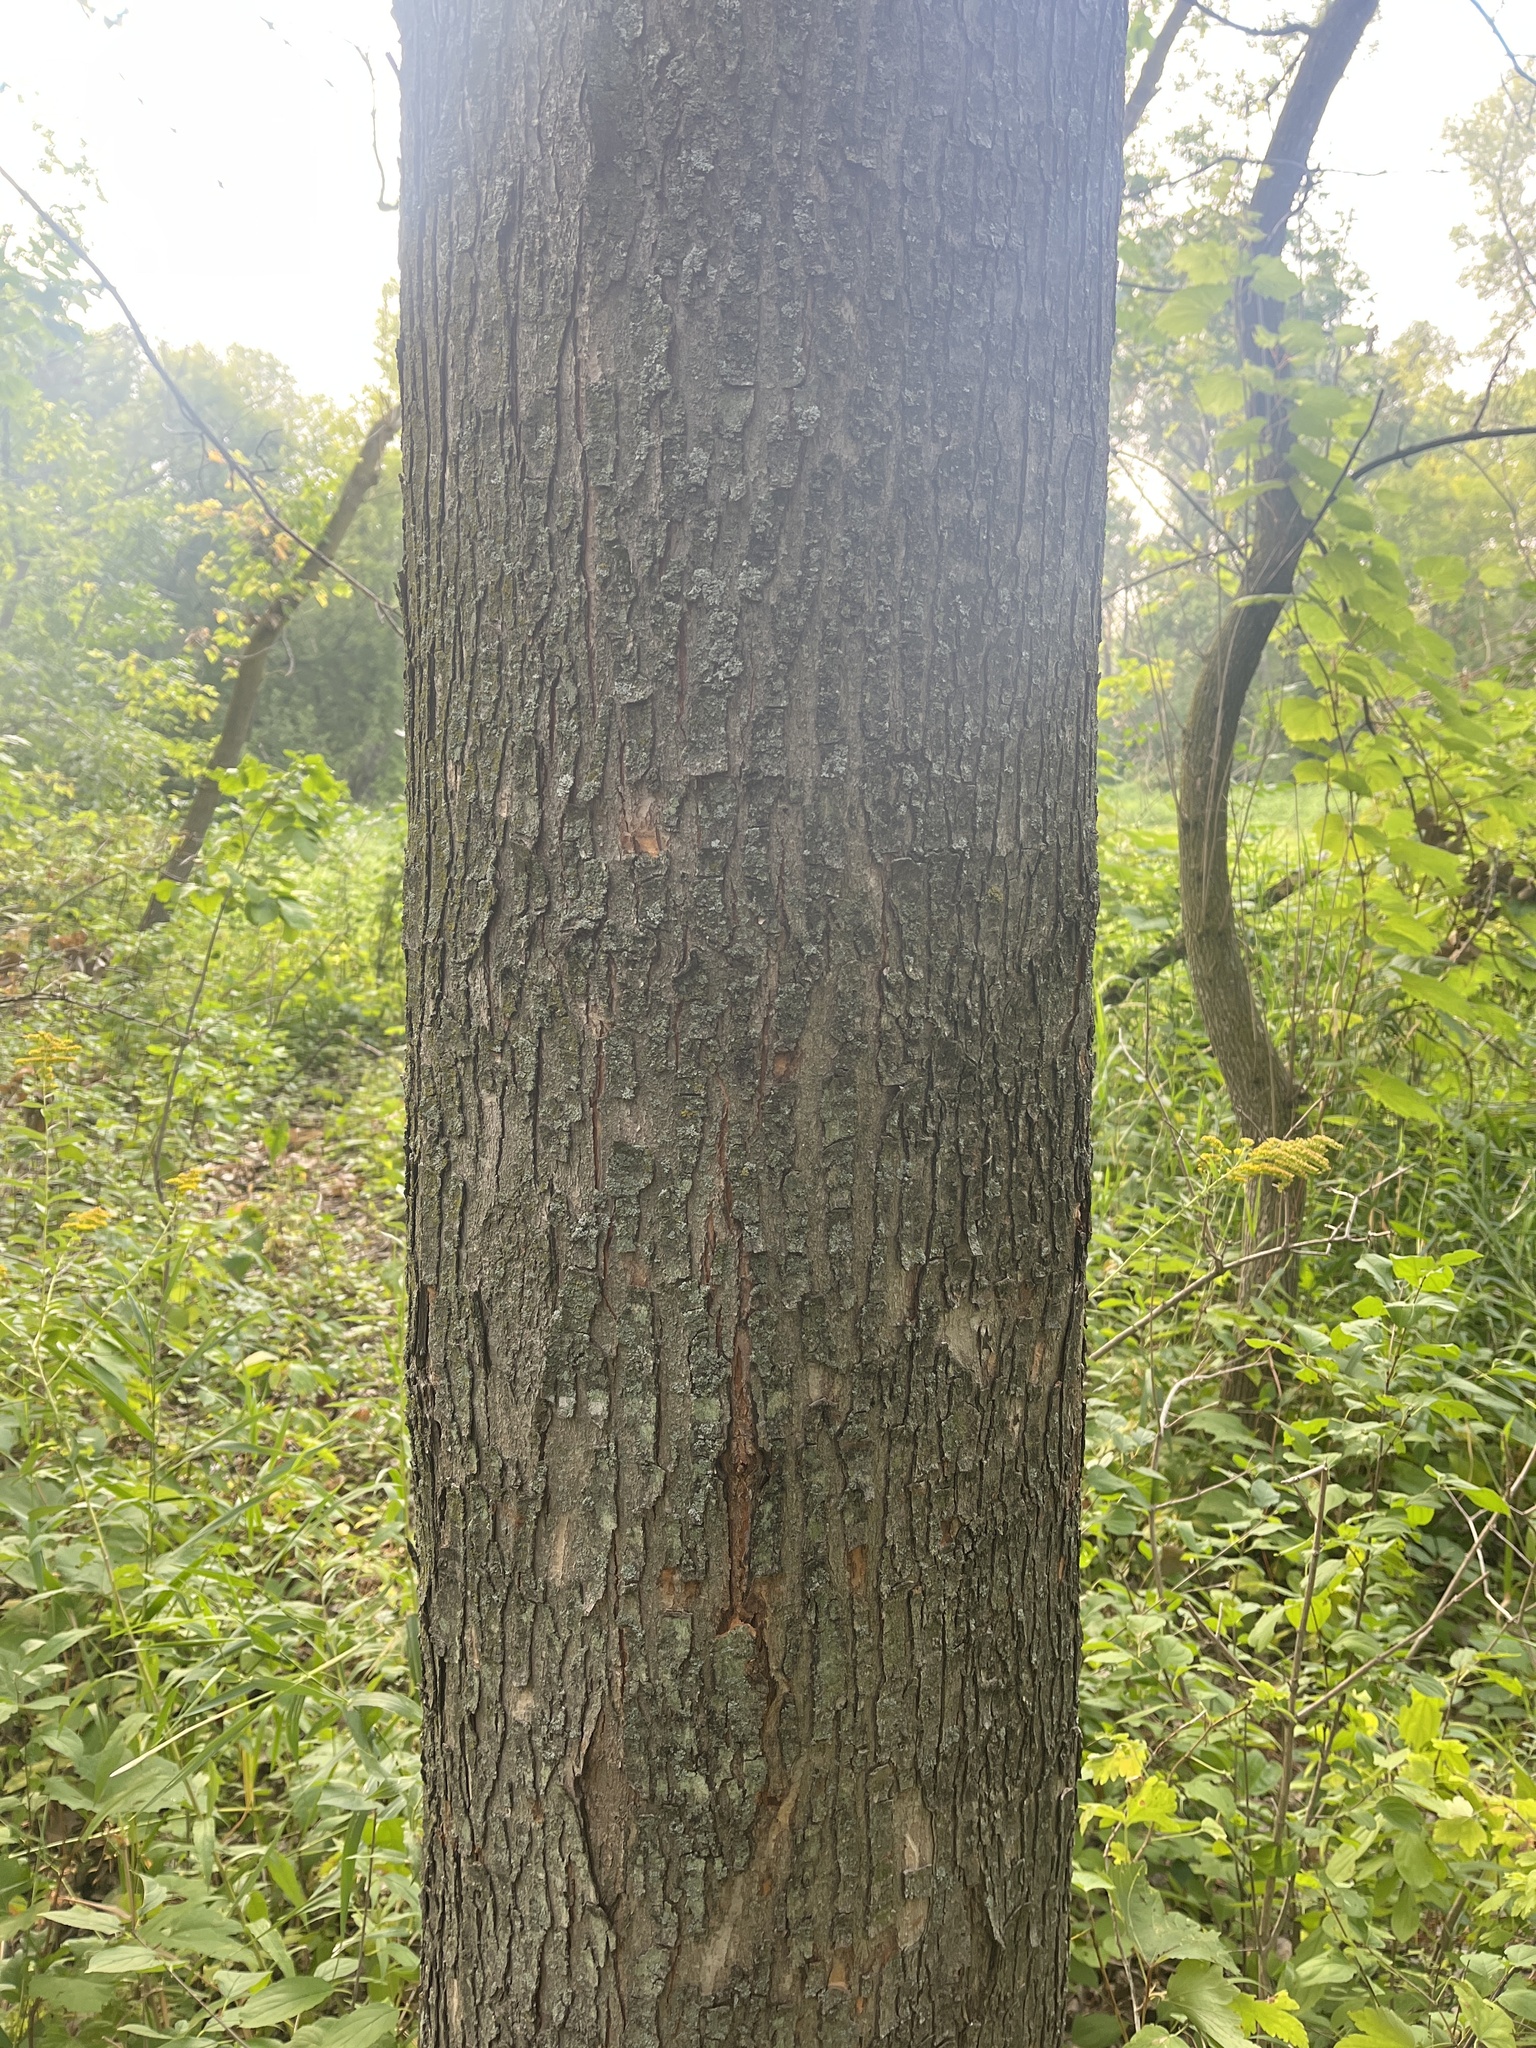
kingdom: Plantae
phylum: Tracheophyta
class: Magnoliopsida
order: Sapindales
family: Sapindaceae
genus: Acer
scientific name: Acer saccharinum
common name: Silver maple
